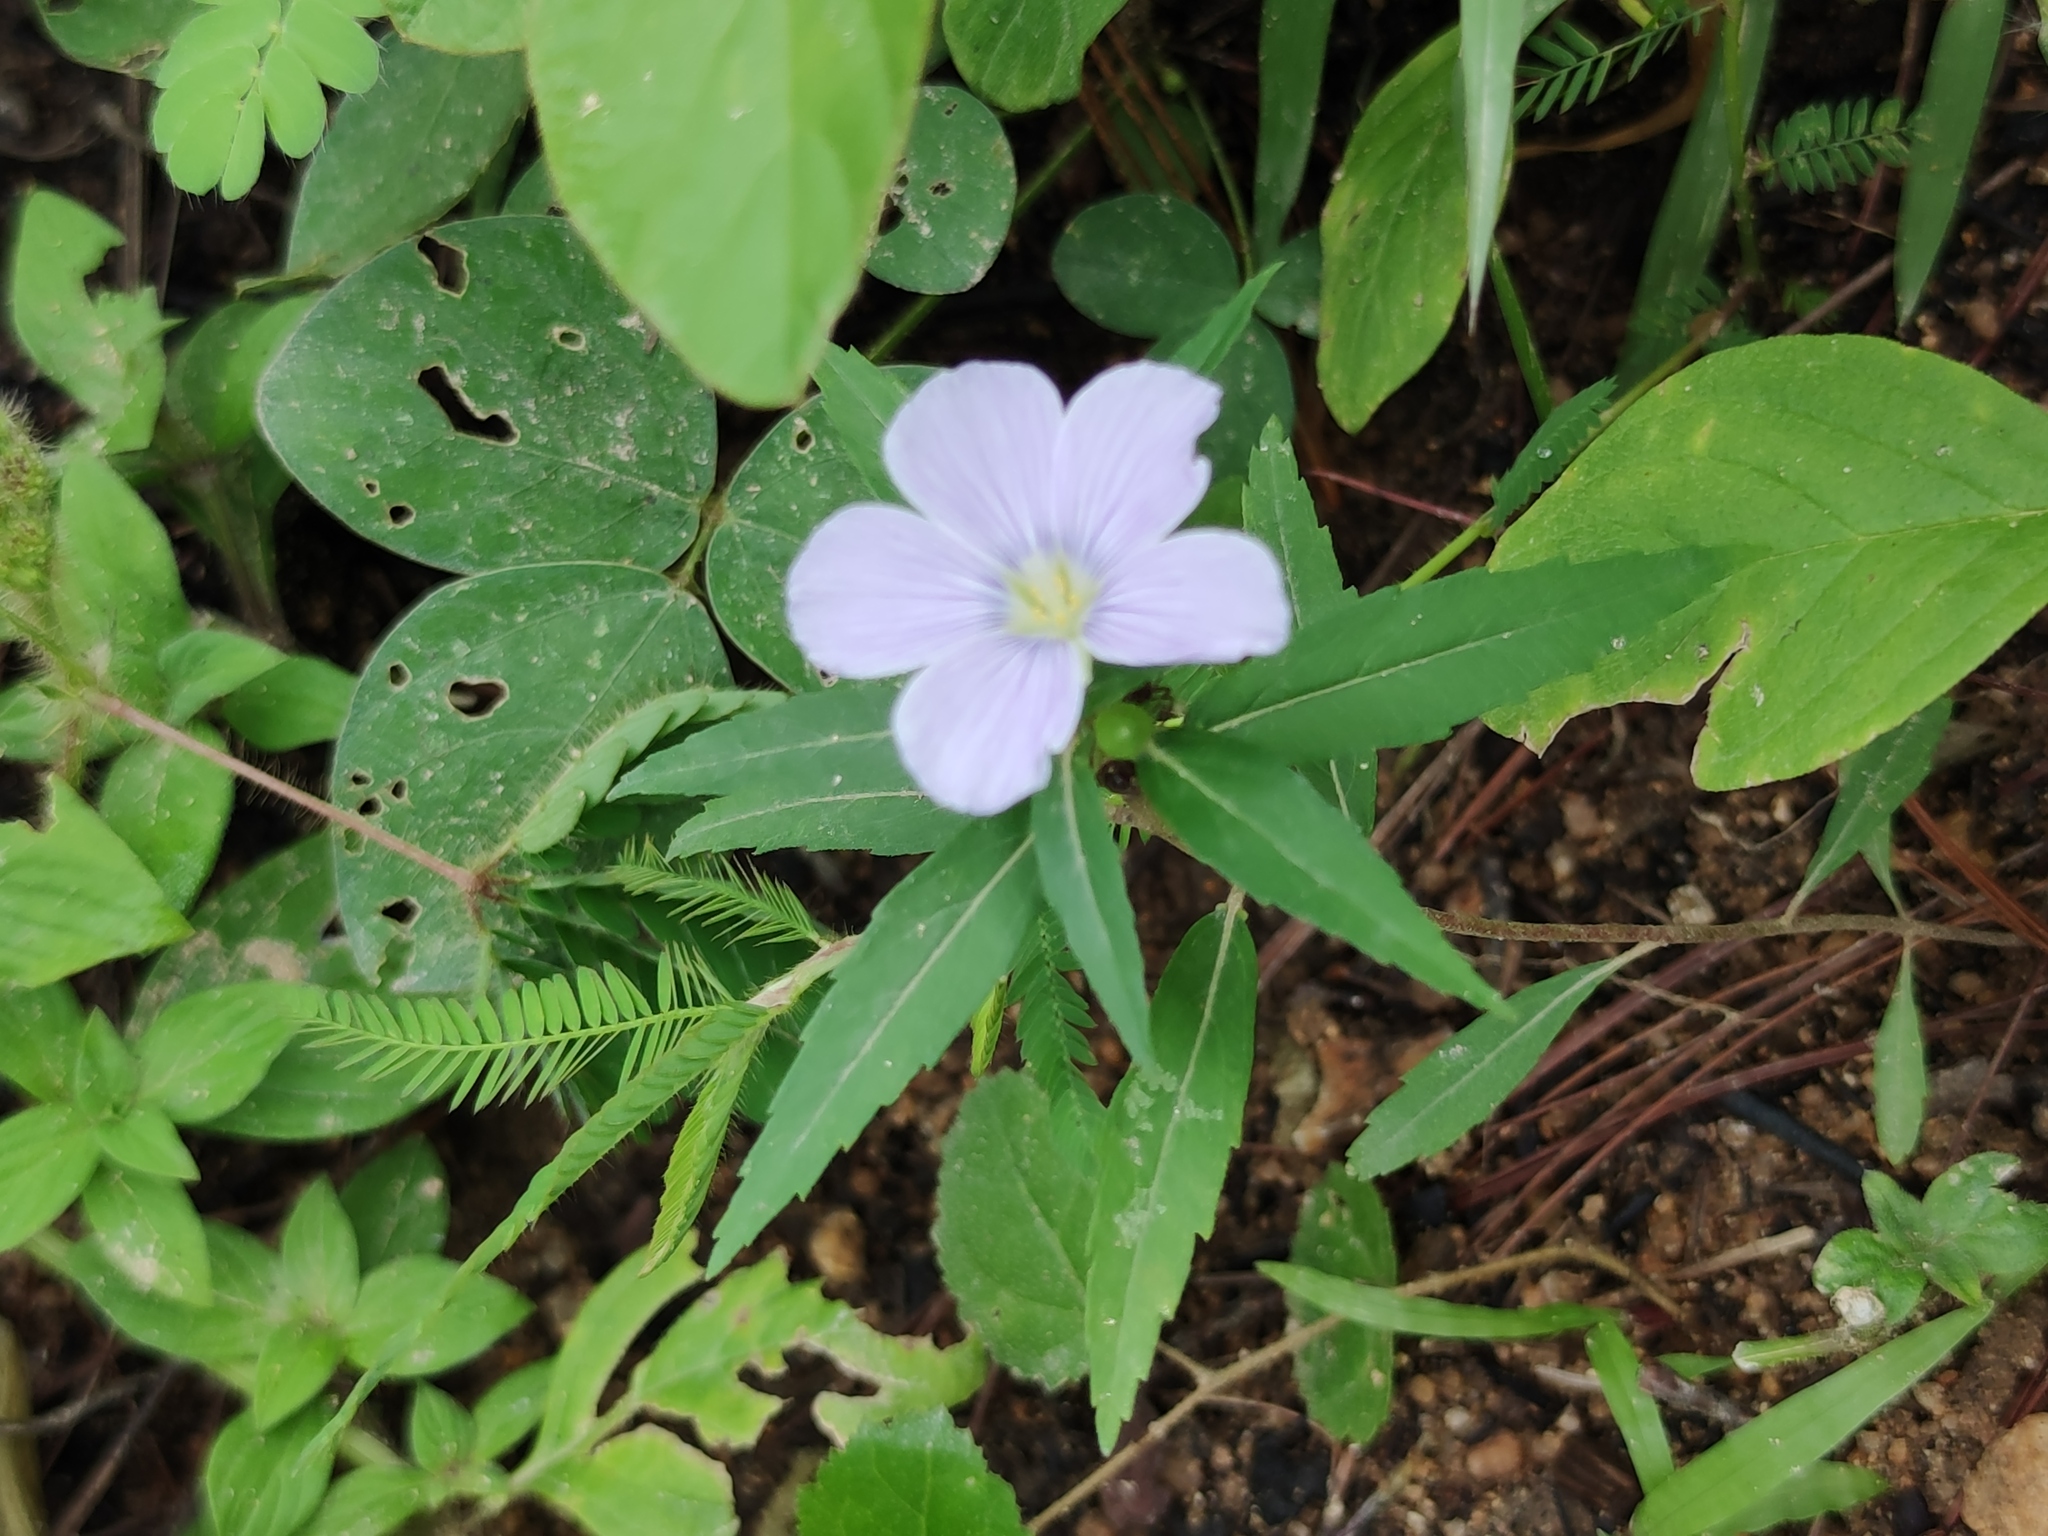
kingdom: Plantae
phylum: Tracheophyta
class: Magnoliopsida
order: Malpighiales
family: Turneraceae
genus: Turnera
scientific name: Turnera coerulea
